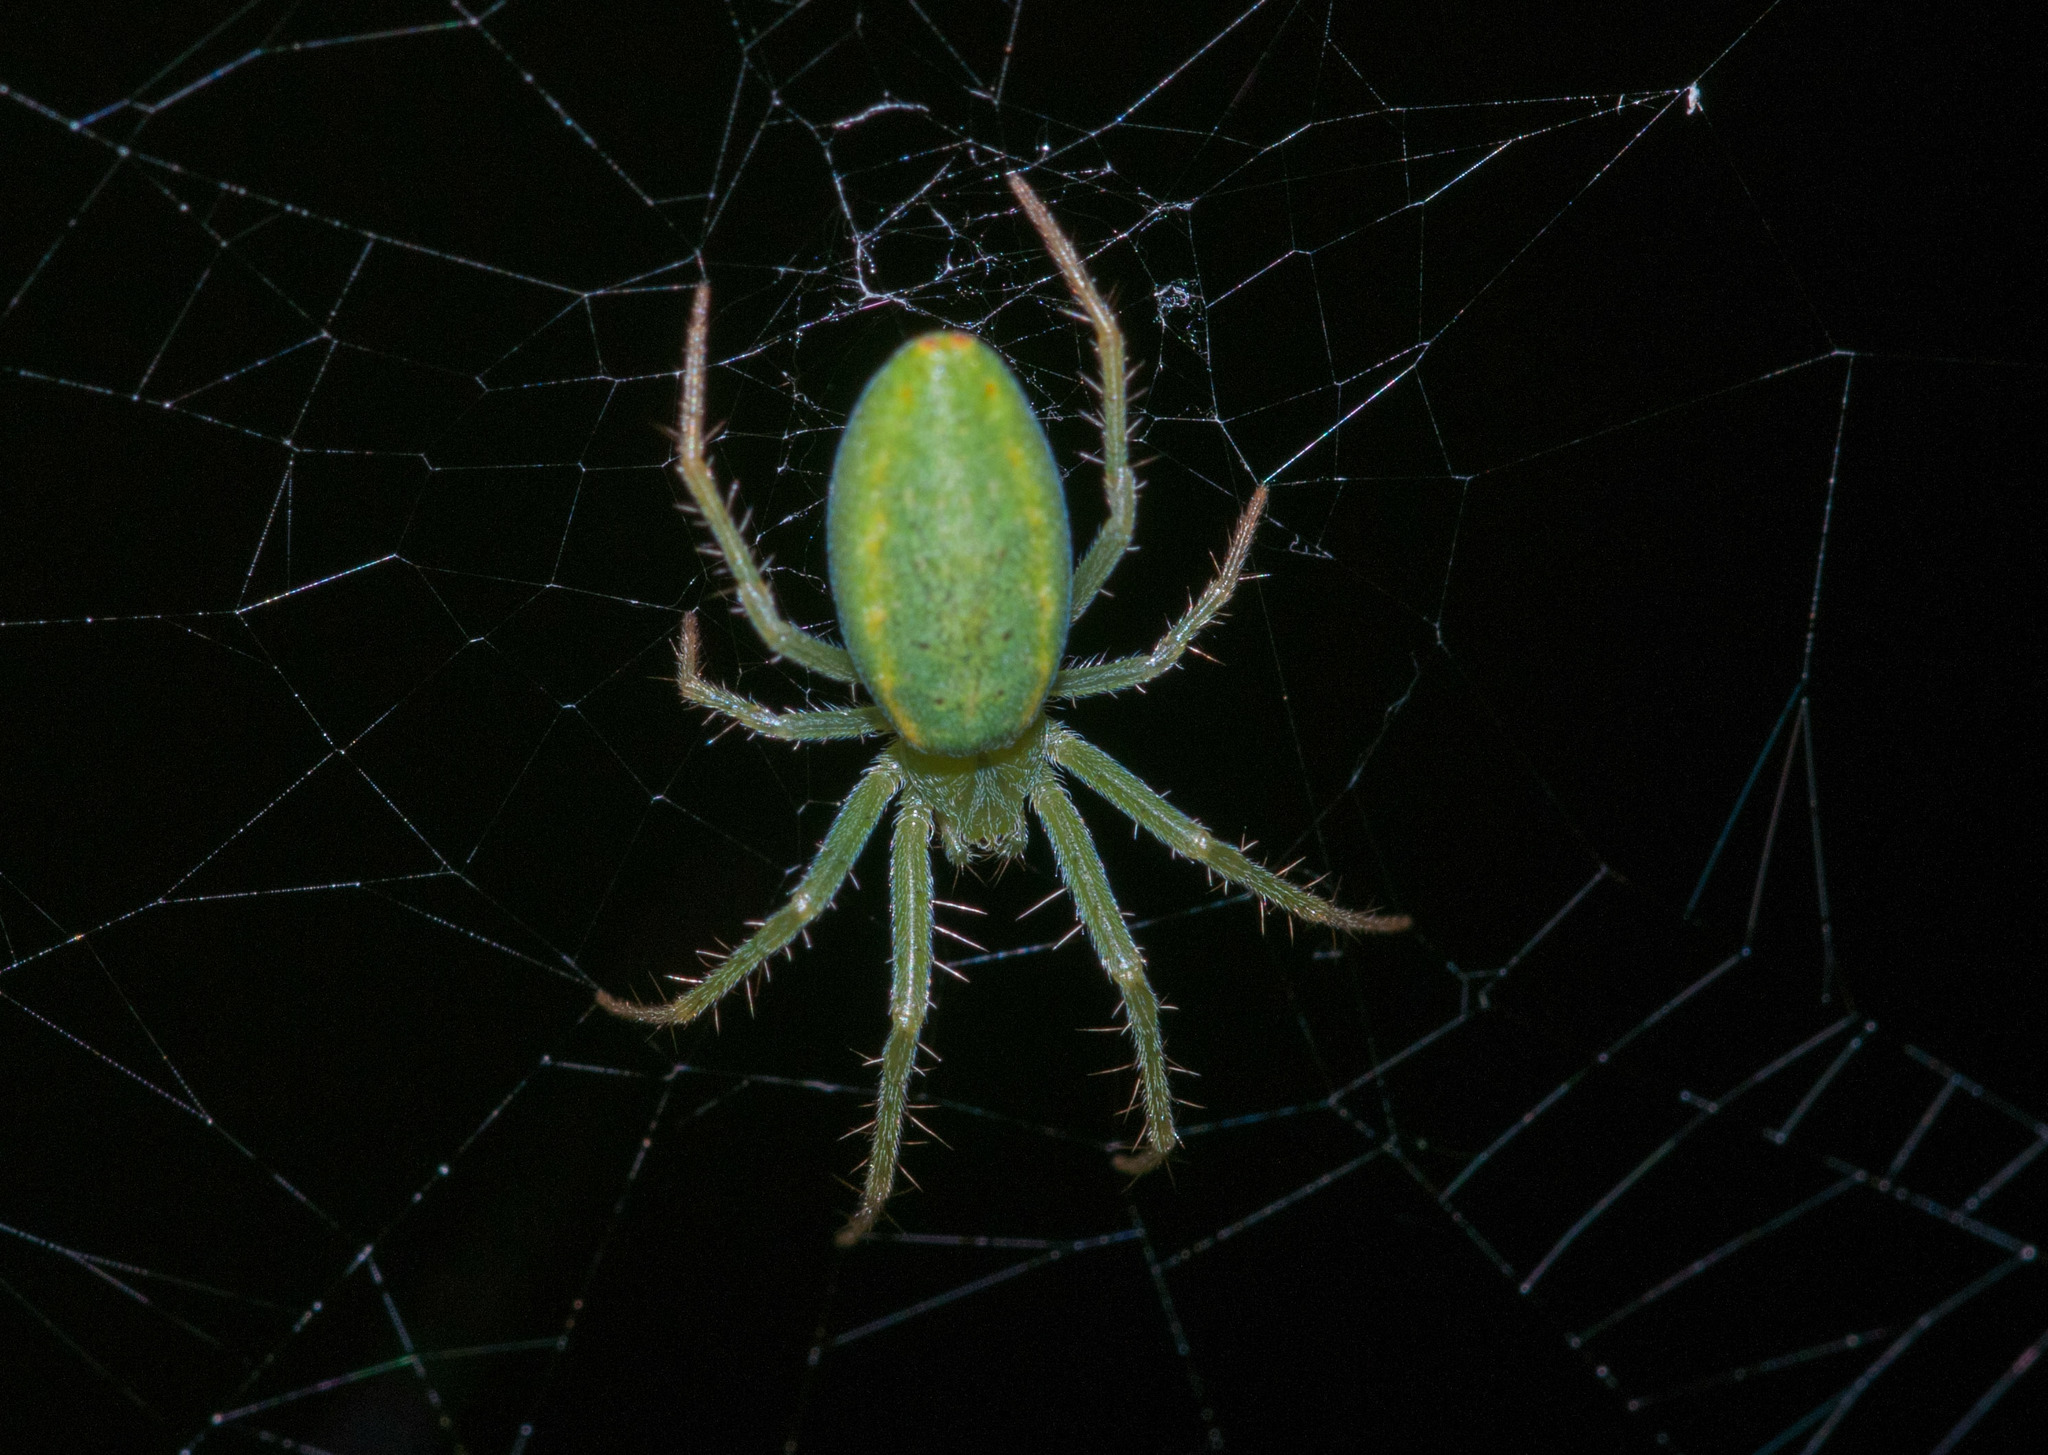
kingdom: Animalia
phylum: Arthropoda
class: Arachnida
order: Araneae
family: Araneidae
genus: Araneus
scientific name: Araneus talipedatus
